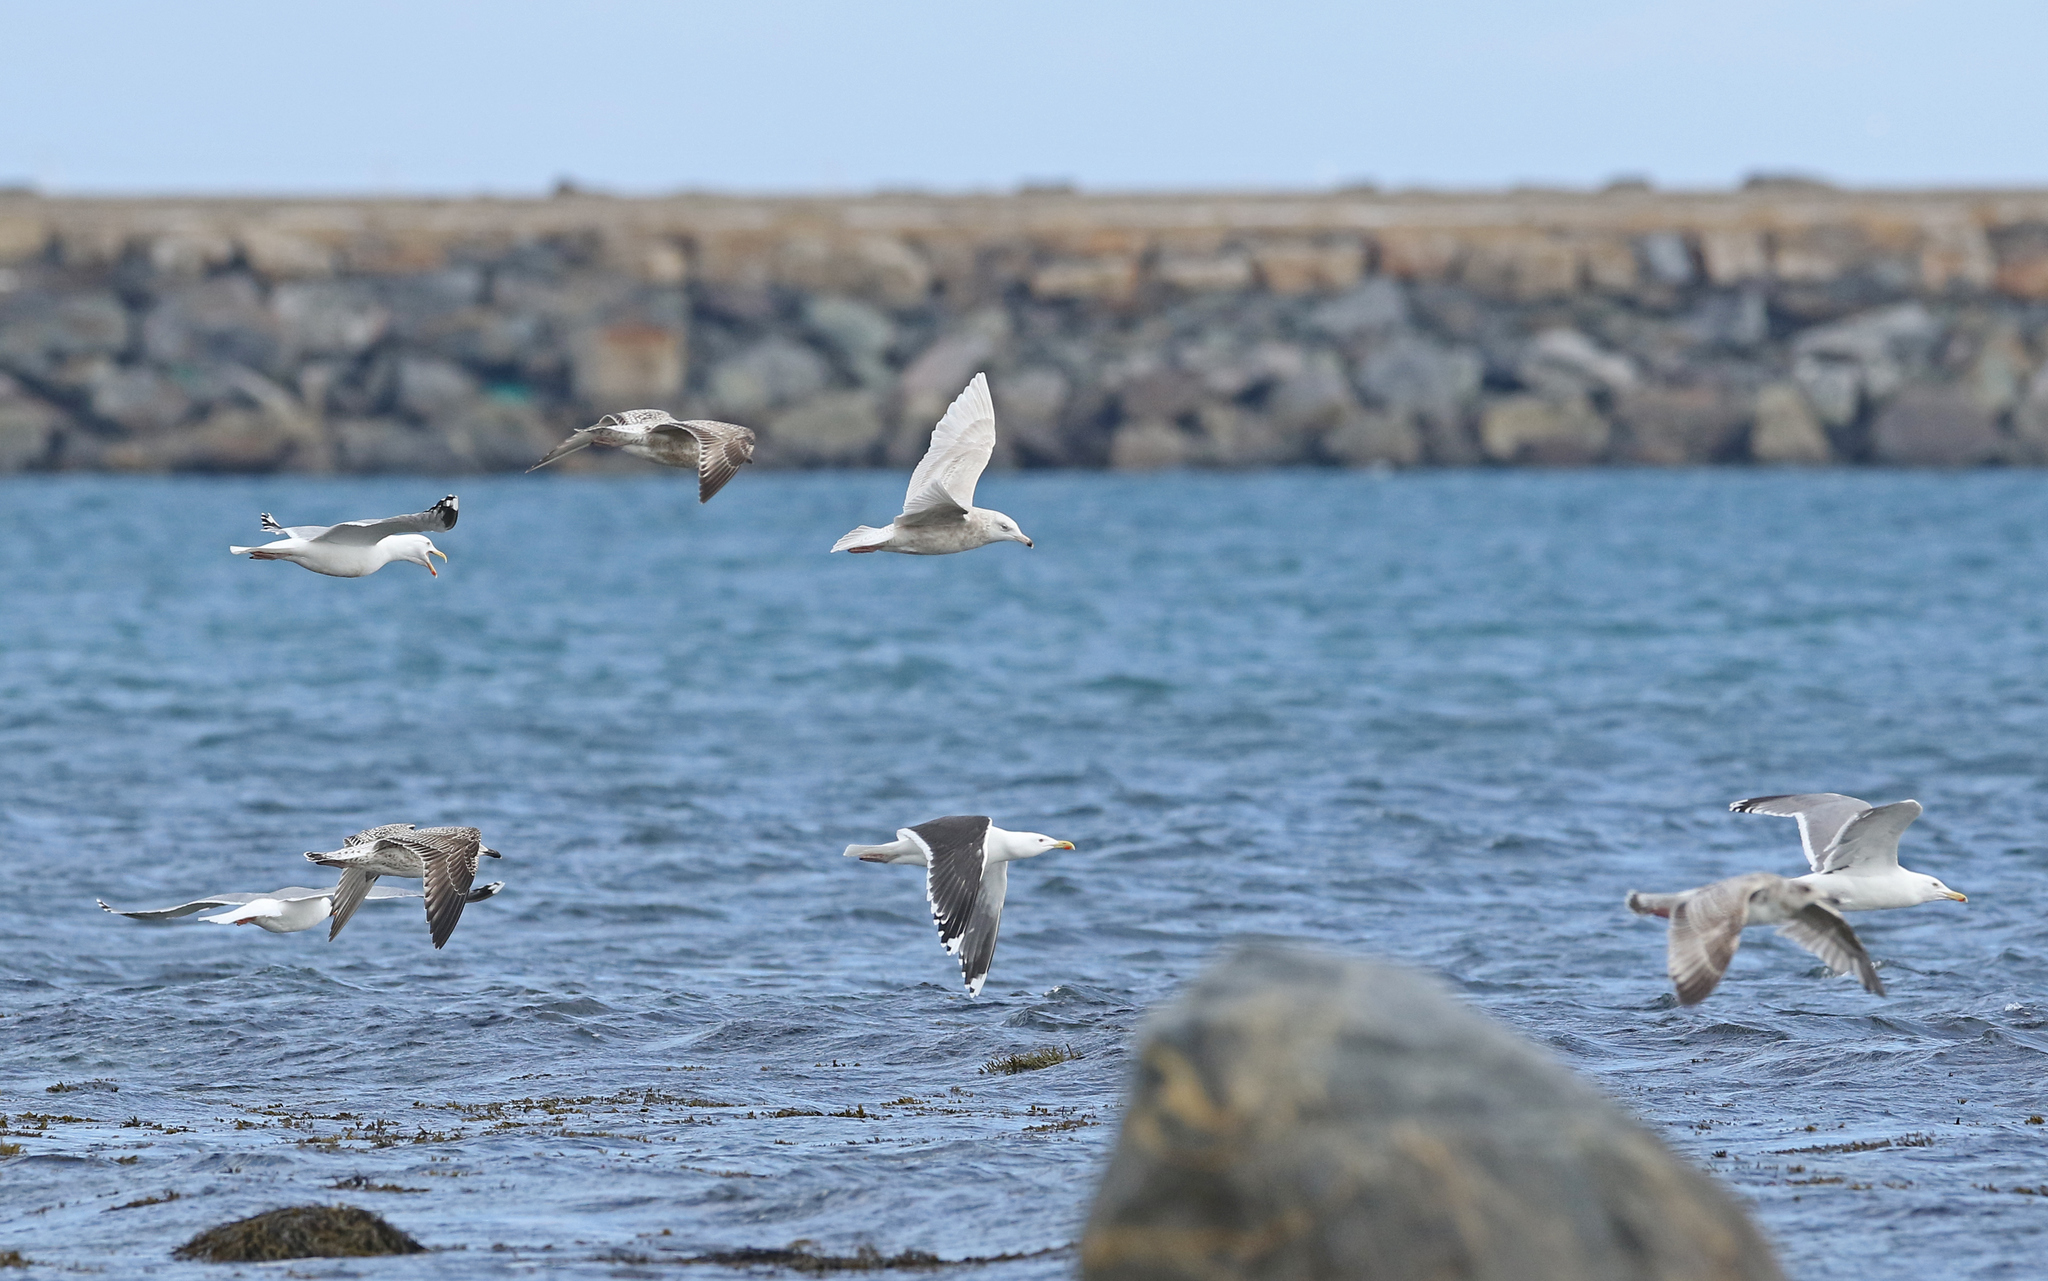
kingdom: Animalia
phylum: Chordata
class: Aves
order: Charadriiformes
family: Laridae
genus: Larus
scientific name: Larus hyperboreus
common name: Glaucous gull
